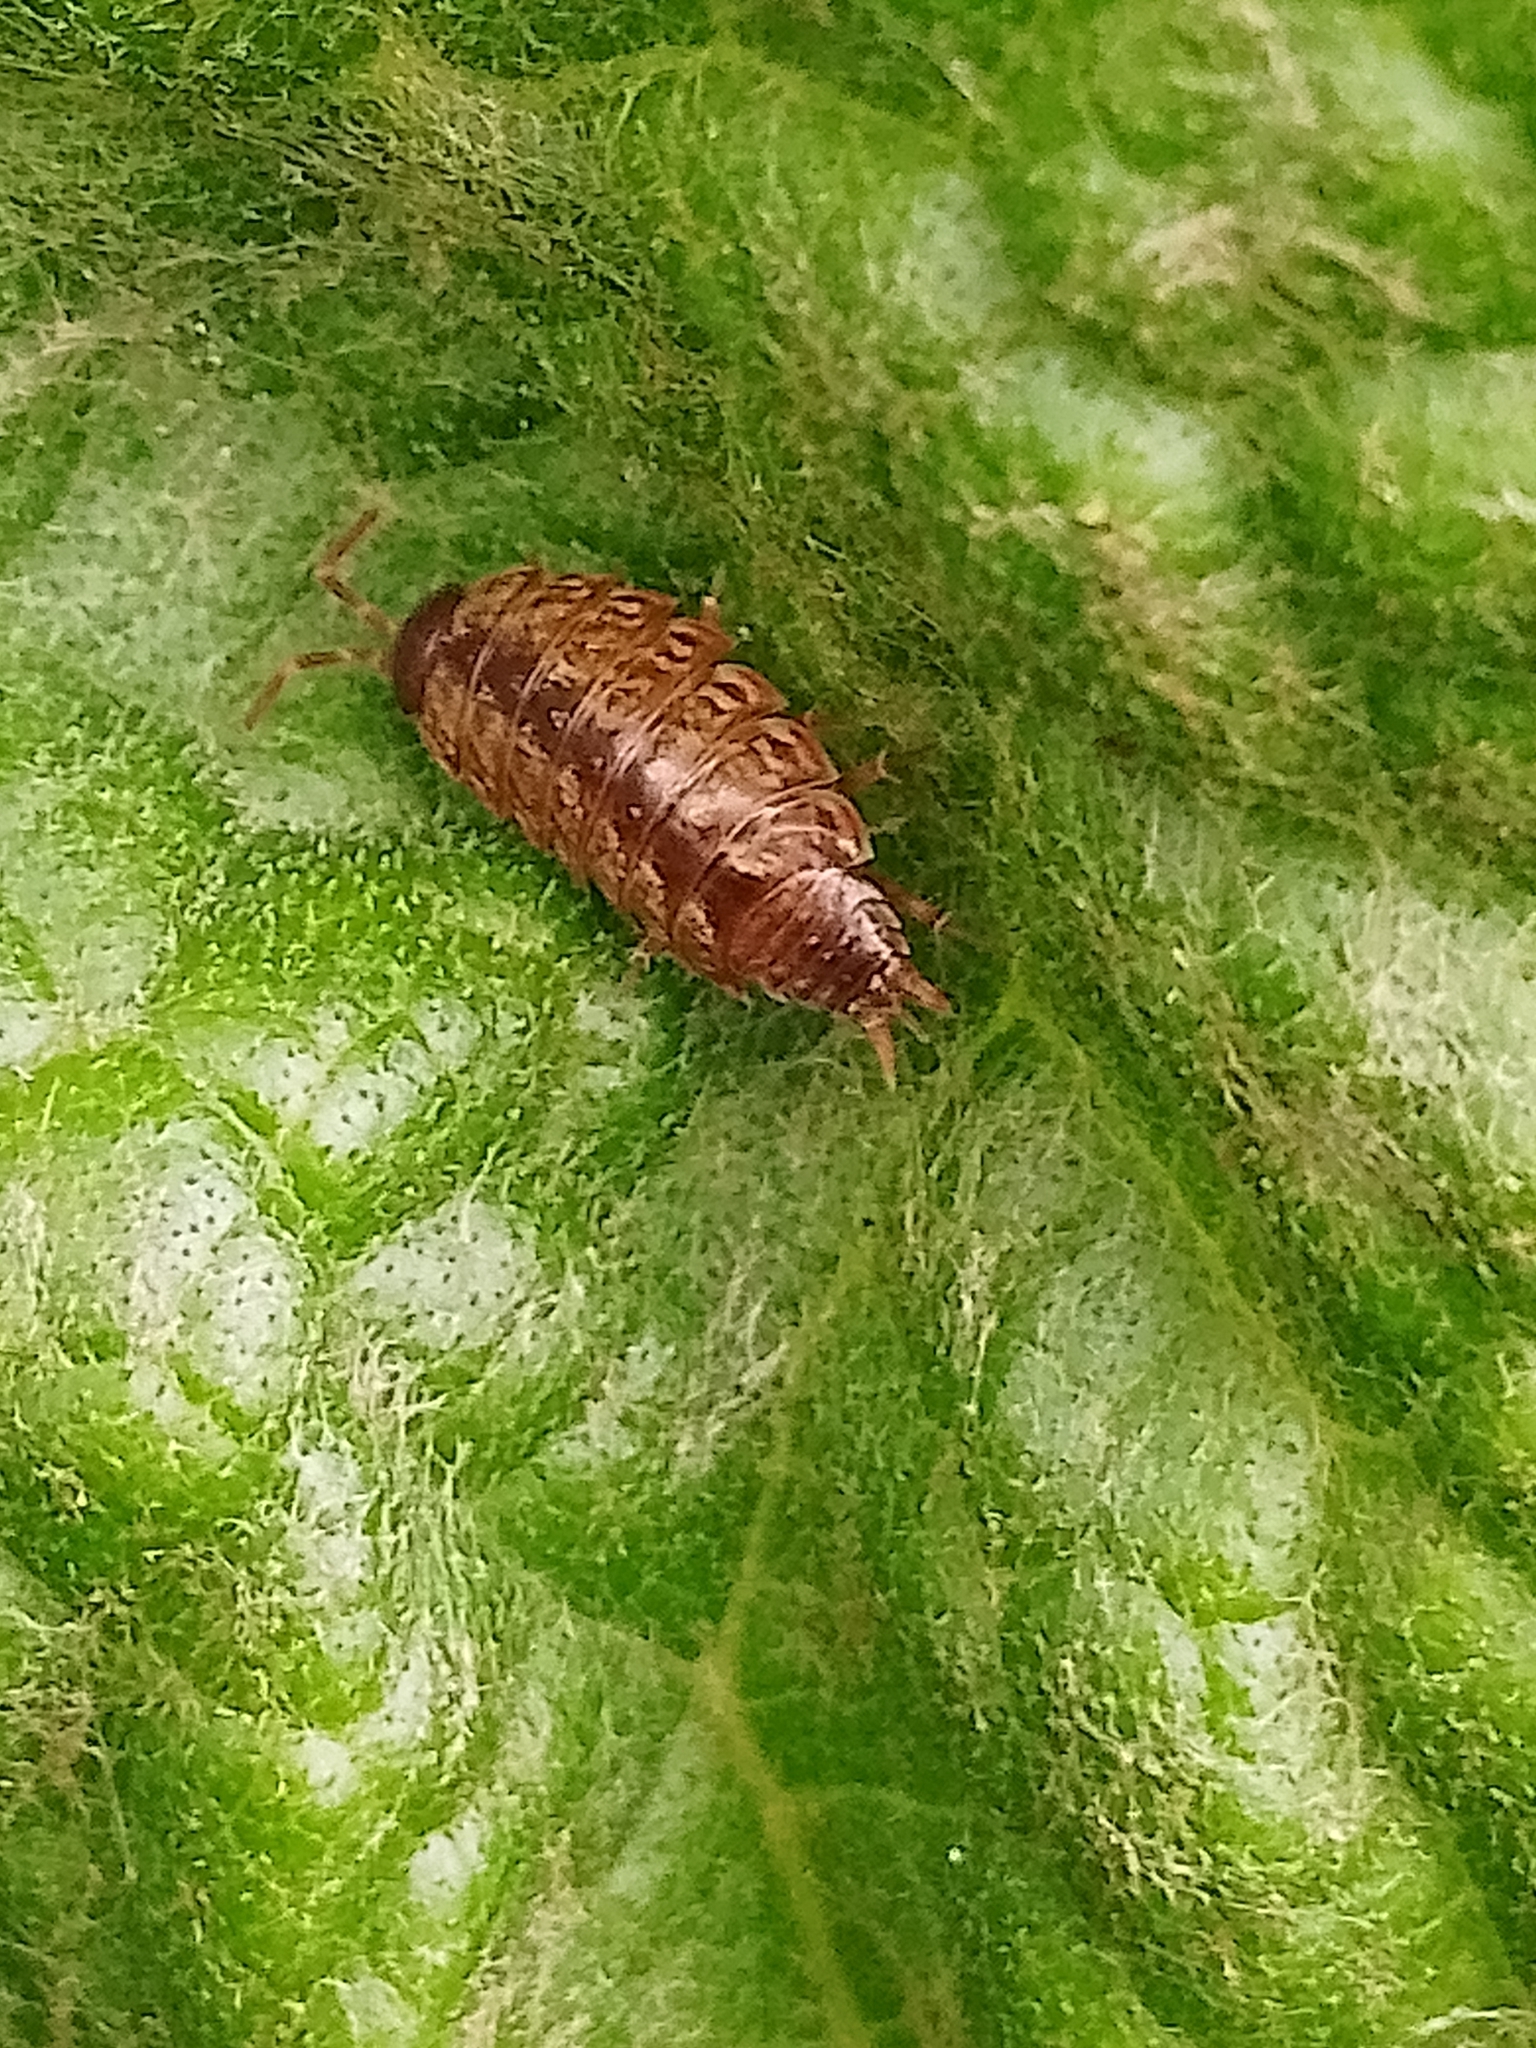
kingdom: Animalia
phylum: Arthropoda
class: Malacostraca
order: Isopoda
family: Philosciidae
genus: Philoscia
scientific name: Philoscia muscorum
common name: Common striped woodlouse
